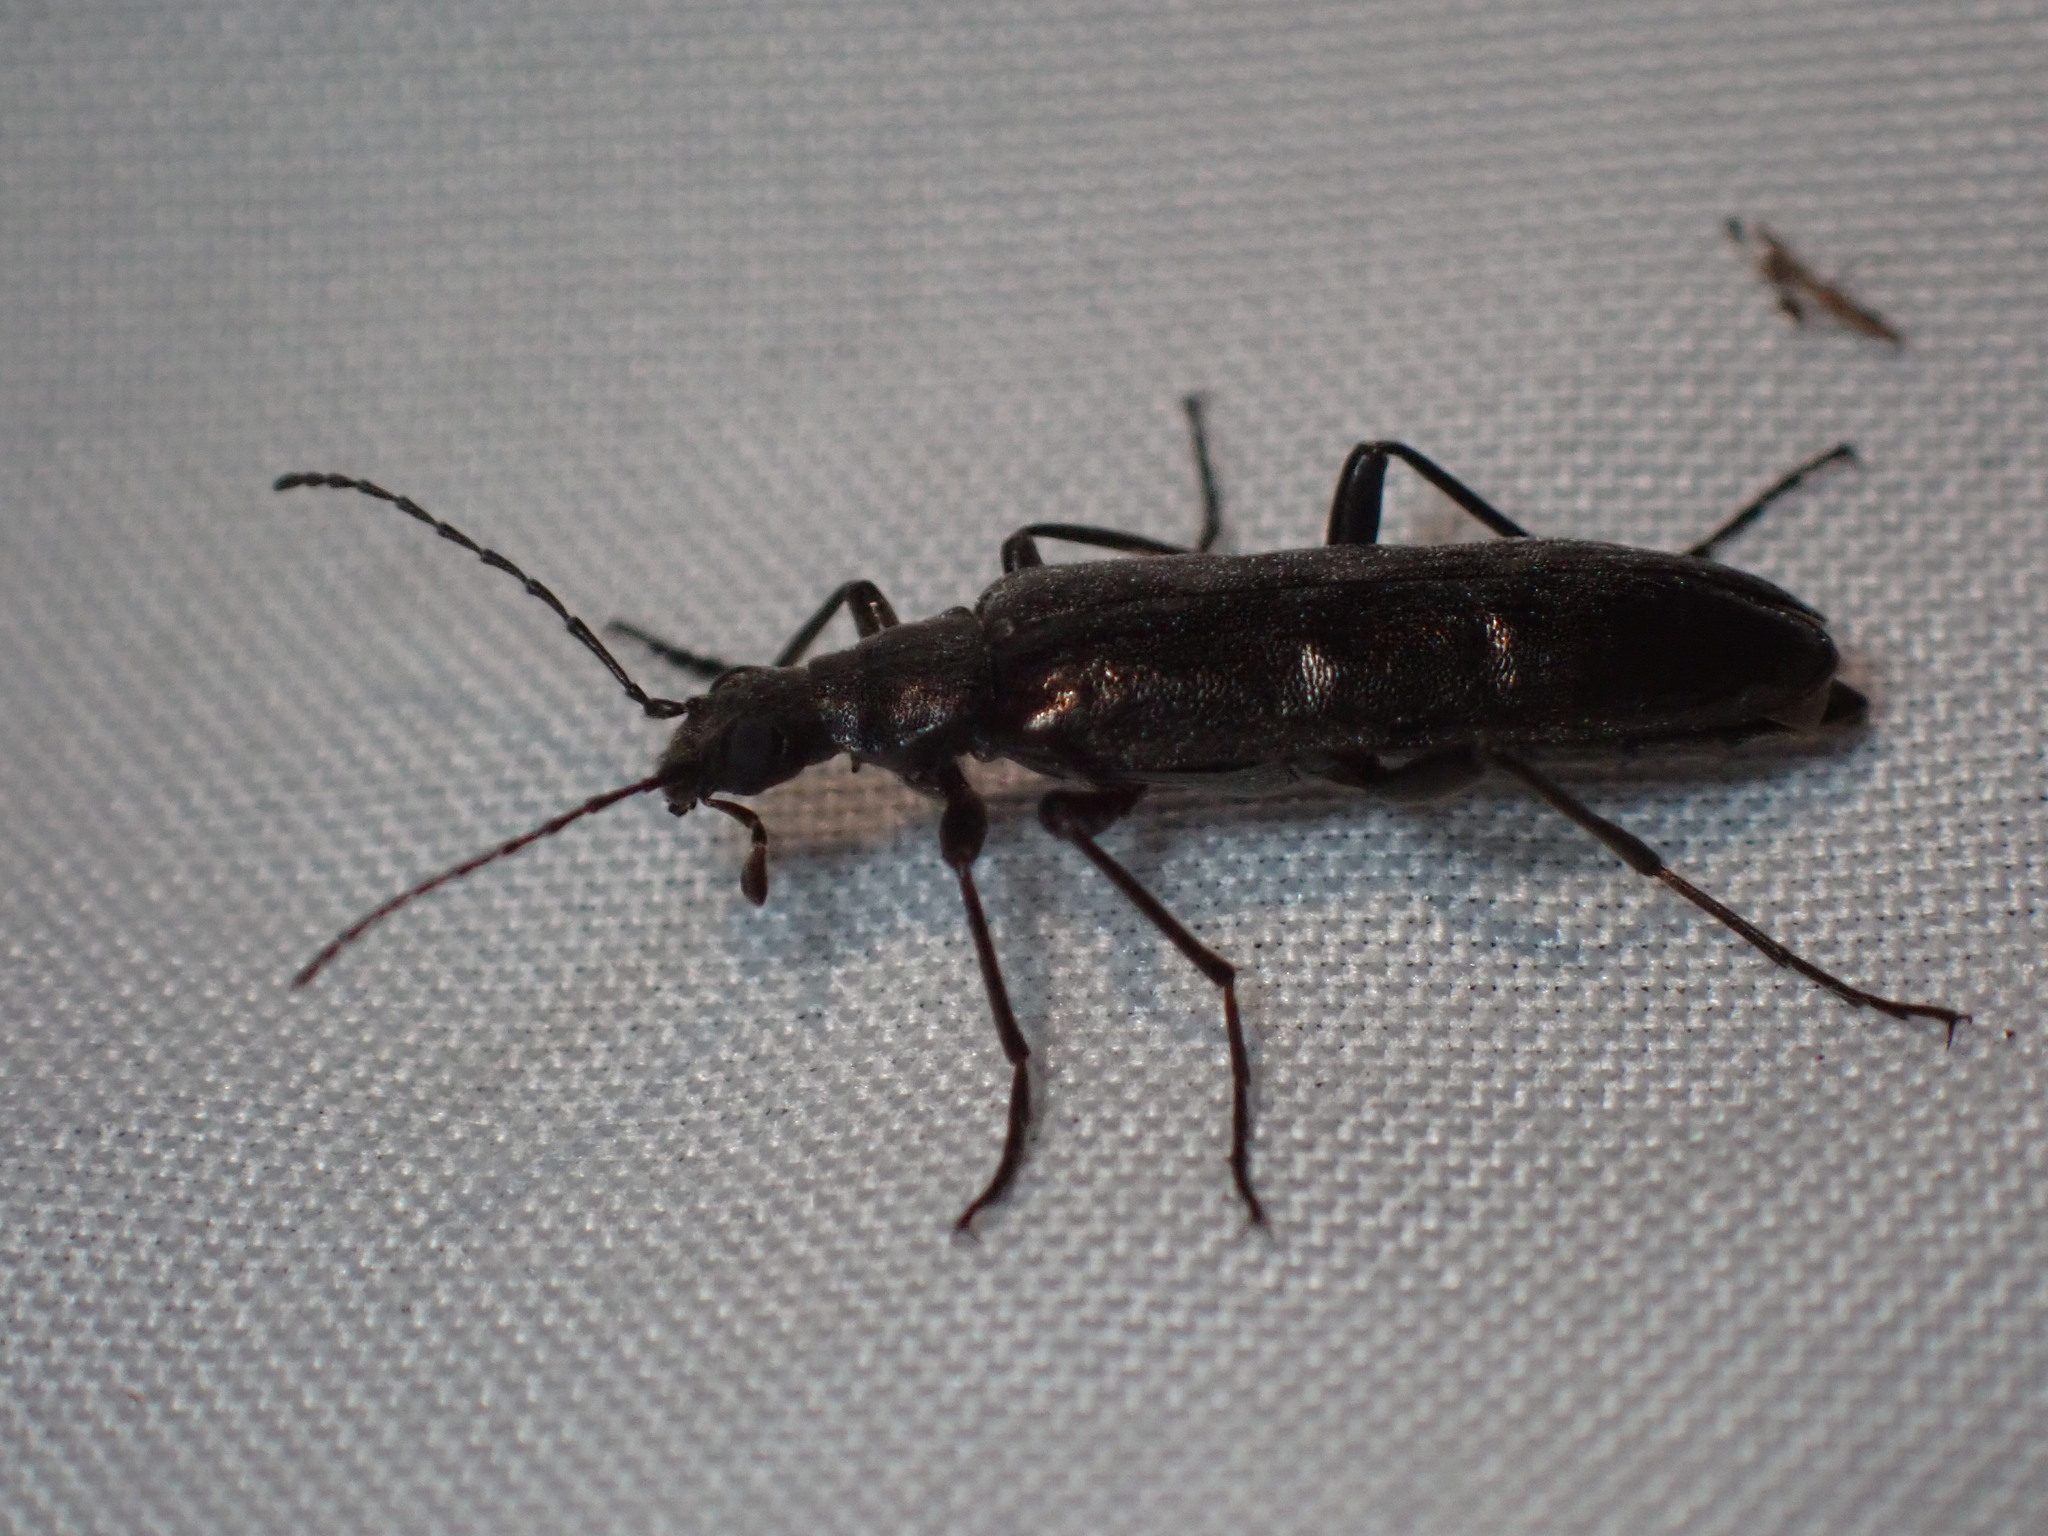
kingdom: Animalia
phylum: Arthropoda
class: Insecta
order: Coleoptera
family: Stenotrachelidae
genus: Stenotrachelus
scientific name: Stenotrachelus aeneus
